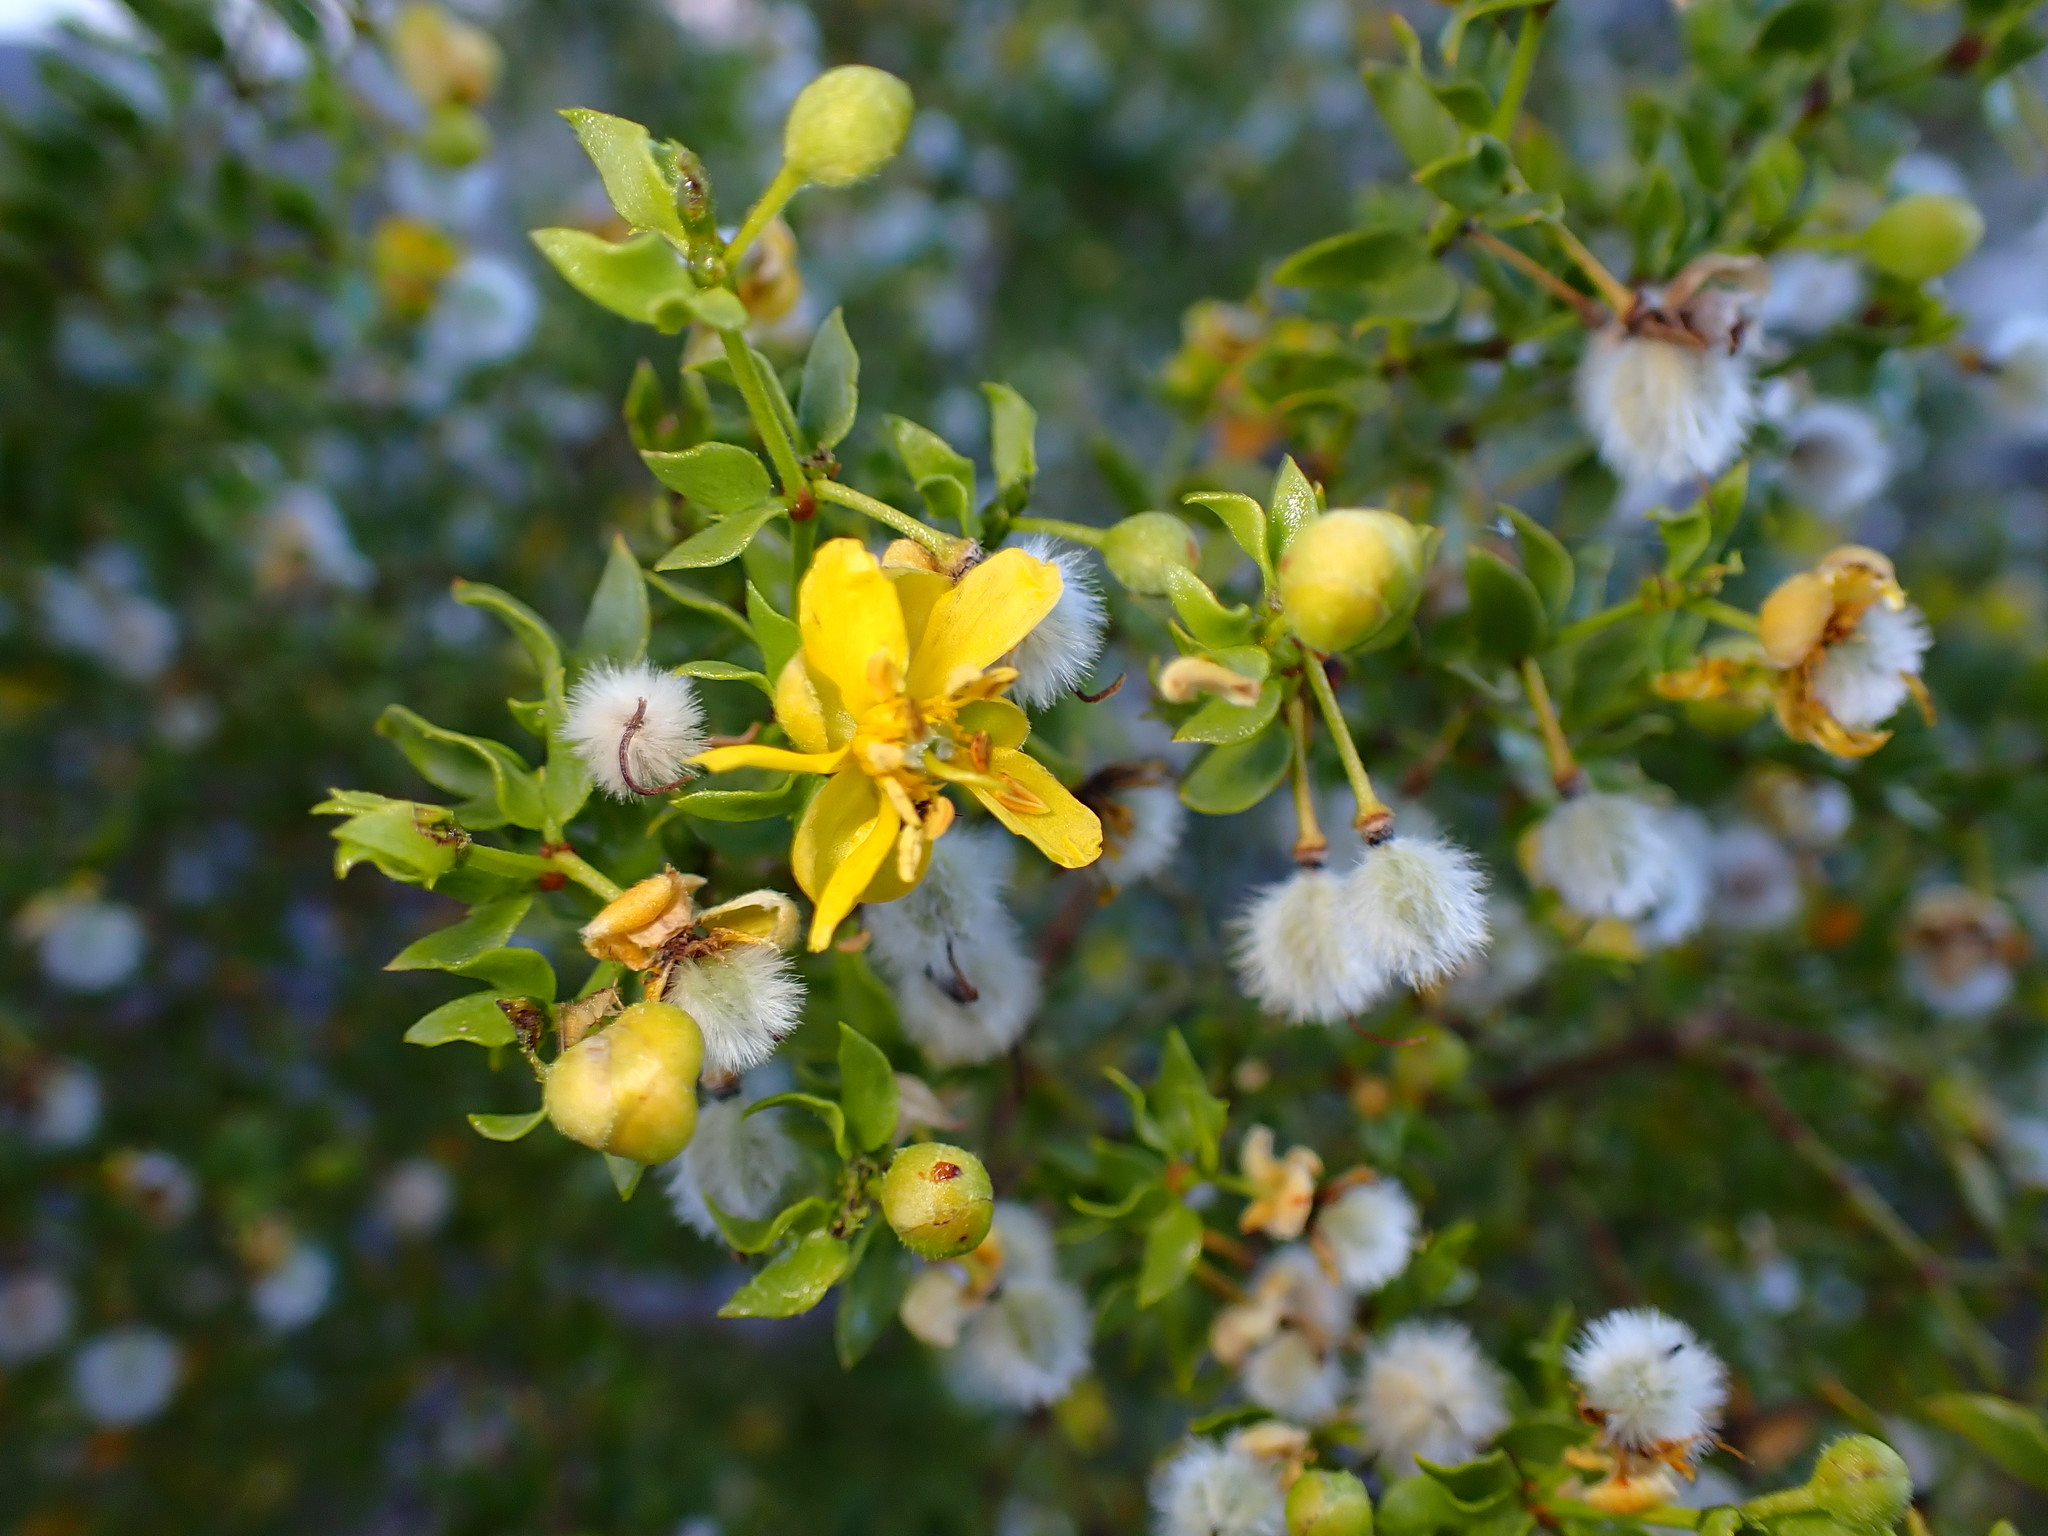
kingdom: Plantae
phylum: Tracheophyta
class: Magnoliopsida
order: Zygophyllales
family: Zygophyllaceae
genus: Larrea
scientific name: Larrea tridentata
